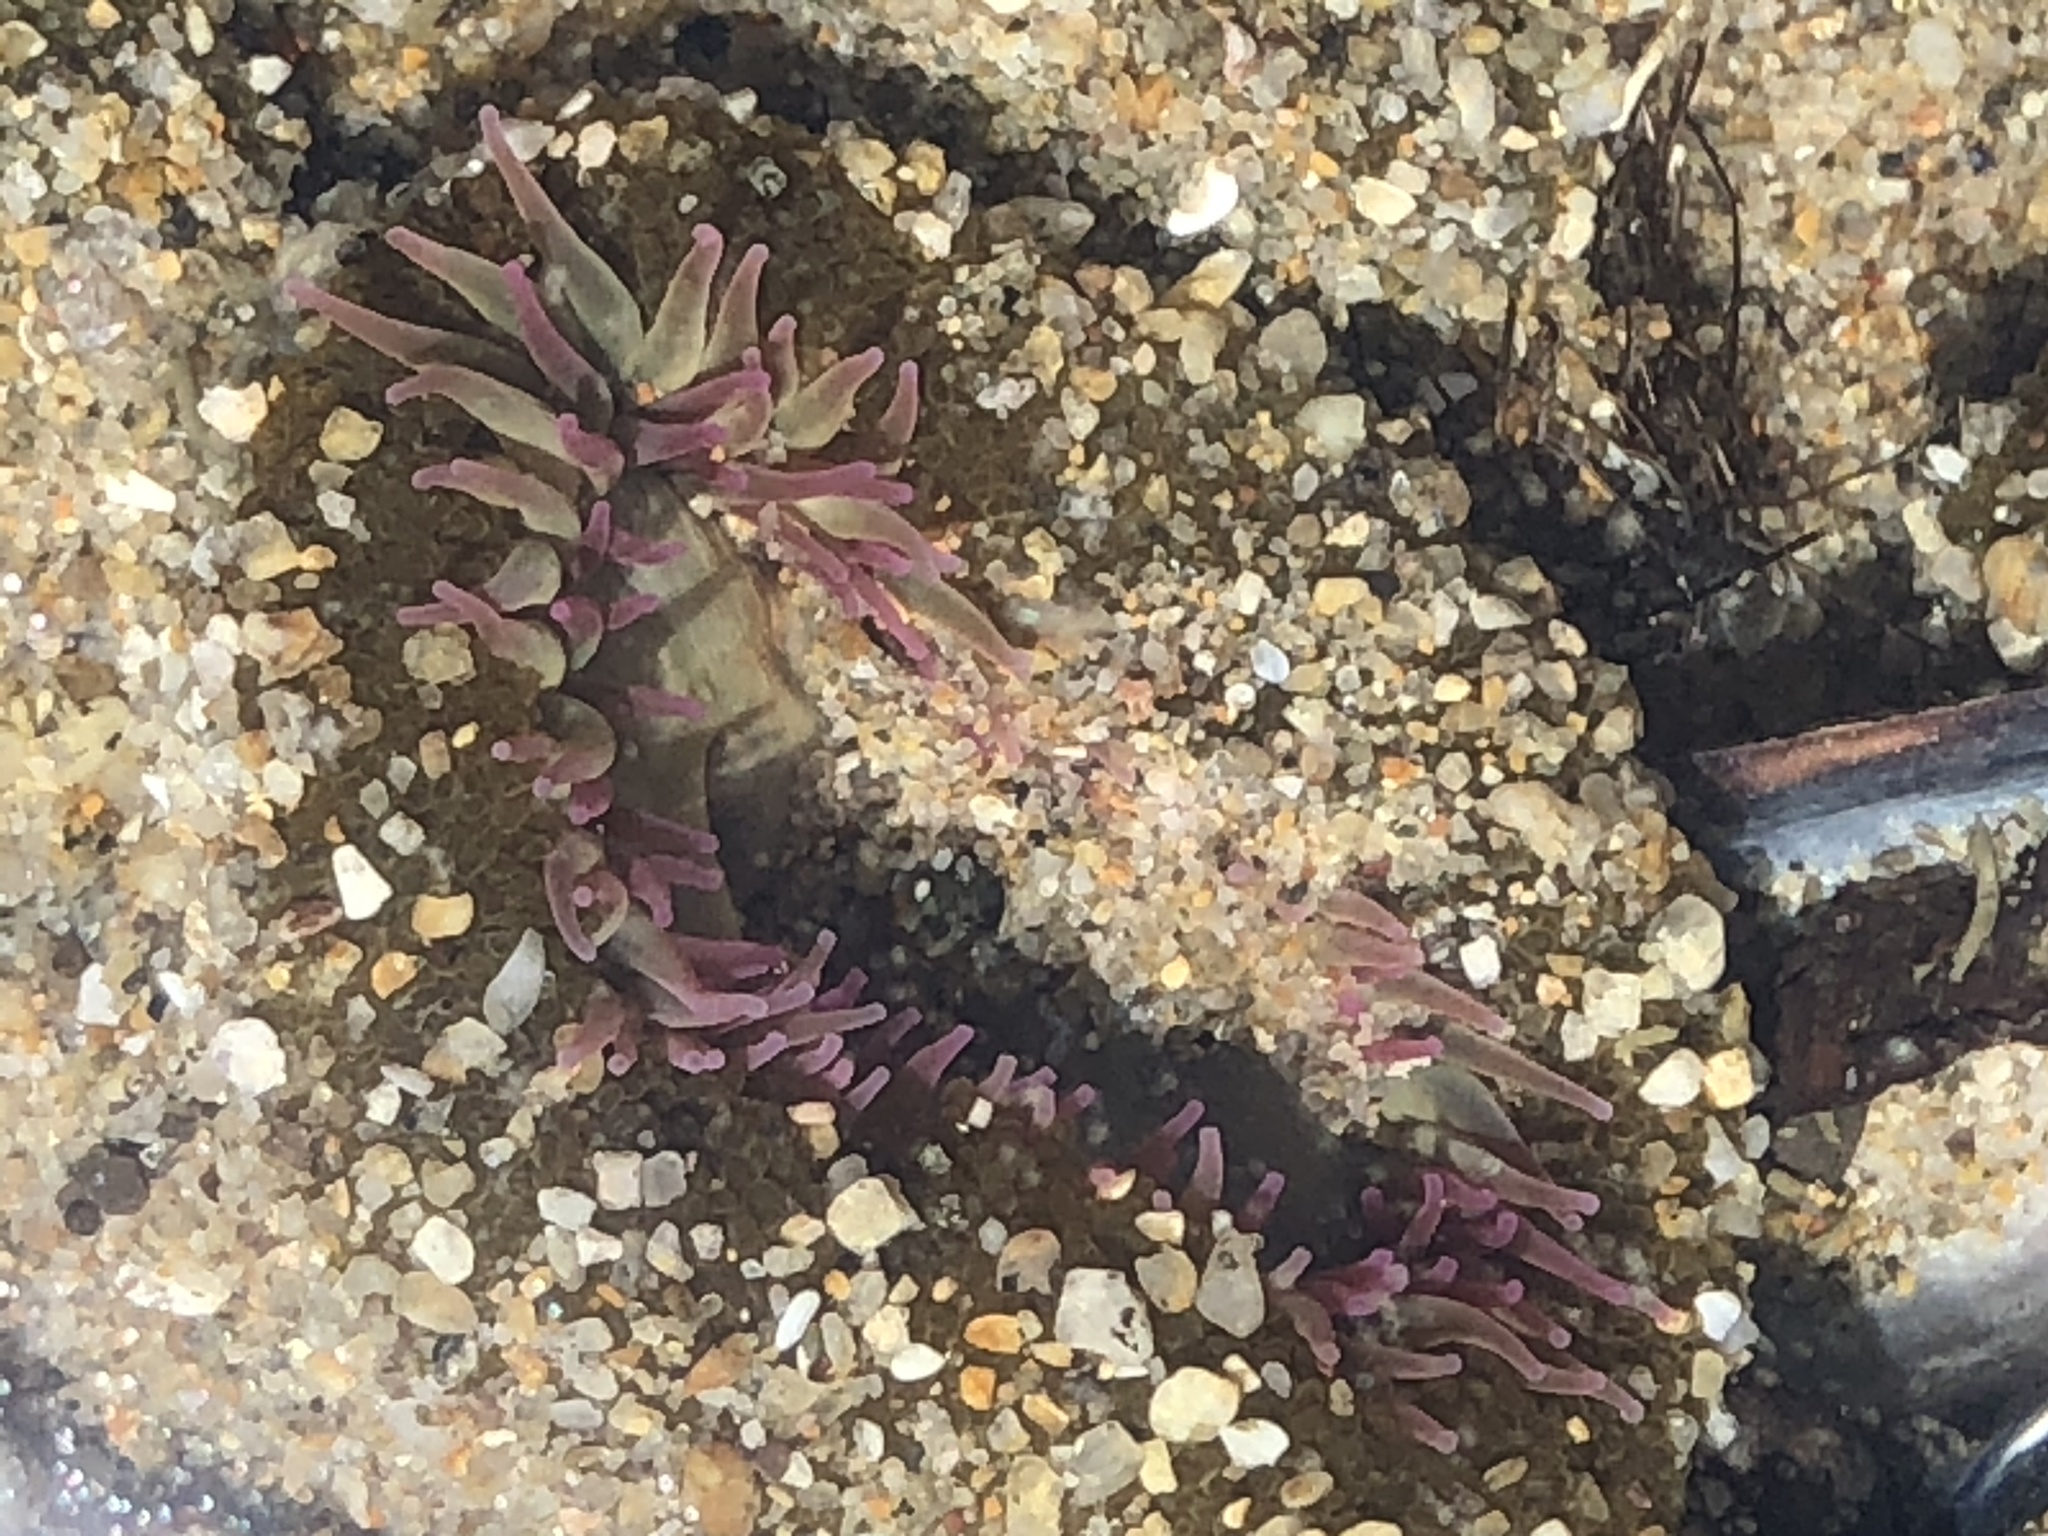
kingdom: Animalia
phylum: Cnidaria
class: Anthozoa
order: Actiniaria
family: Actiniidae
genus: Anthopleura
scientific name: Anthopleura elegantissima
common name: Clonal anemone
